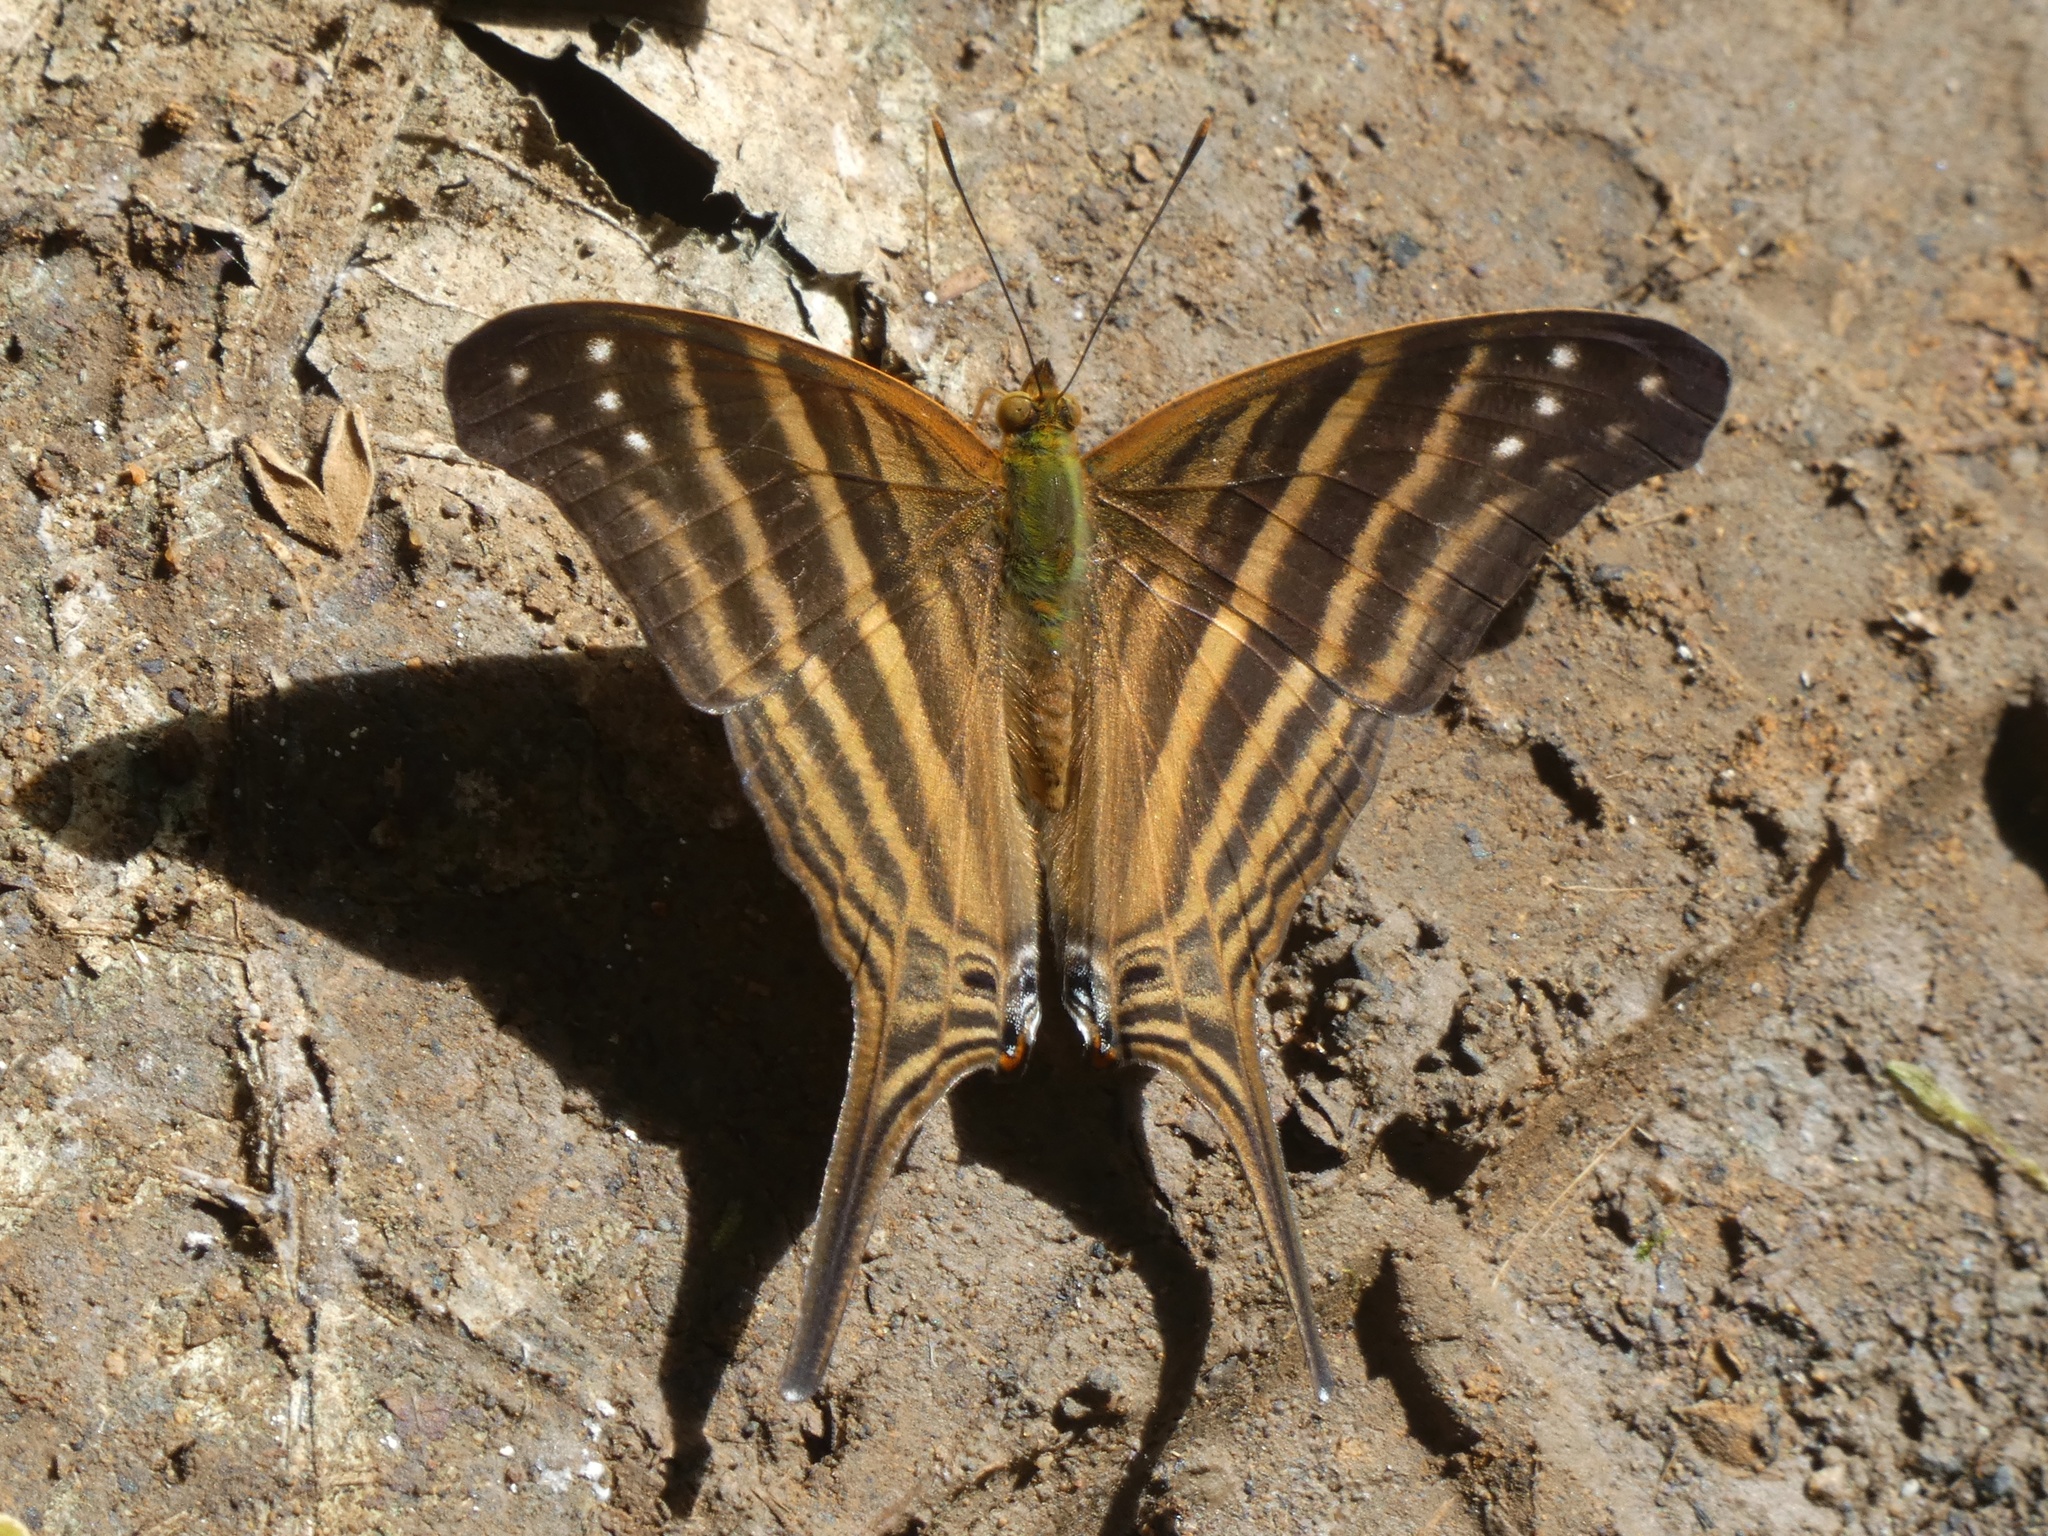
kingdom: Animalia
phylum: Arthropoda
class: Insecta
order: Lepidoptera
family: Nymphalidae
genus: Marpesia
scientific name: Marpesia chiron
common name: Many-banded daggerwing
